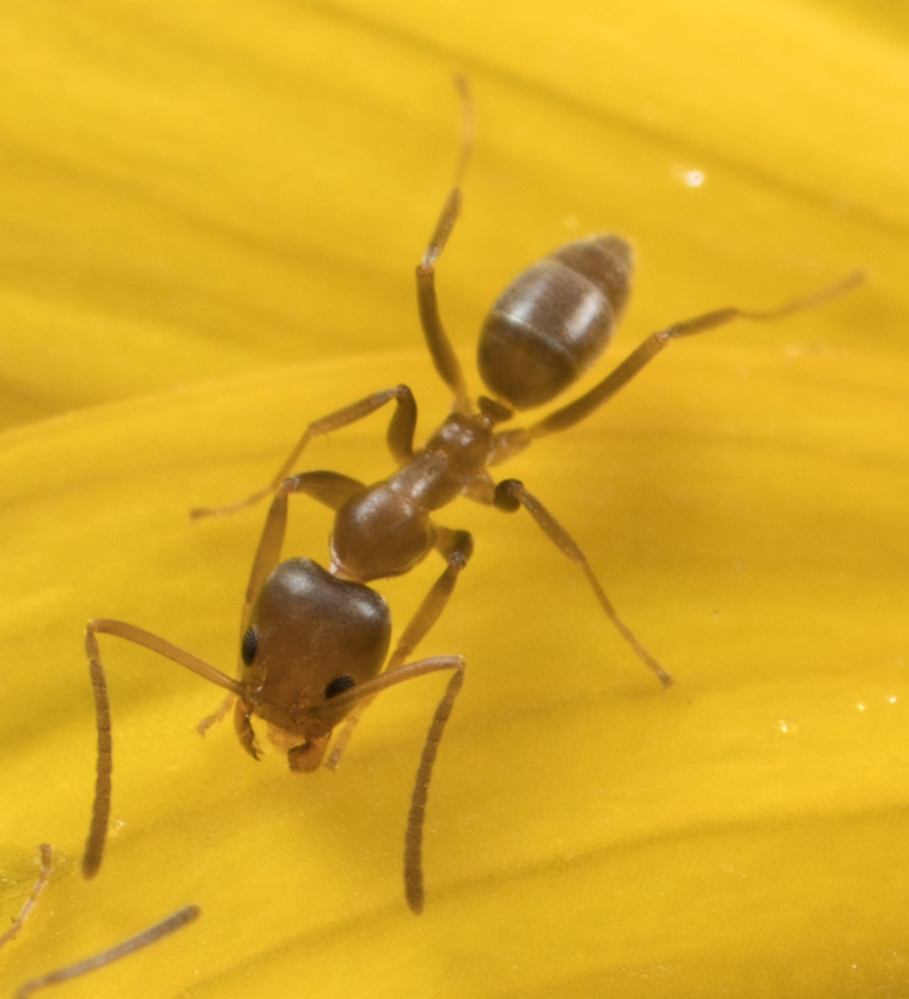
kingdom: Animalia
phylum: Arthropoda
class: Insecta
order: Hymenoptera
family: Formicidae
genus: Linepithema
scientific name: Linepithema humile
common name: Argentine ant
